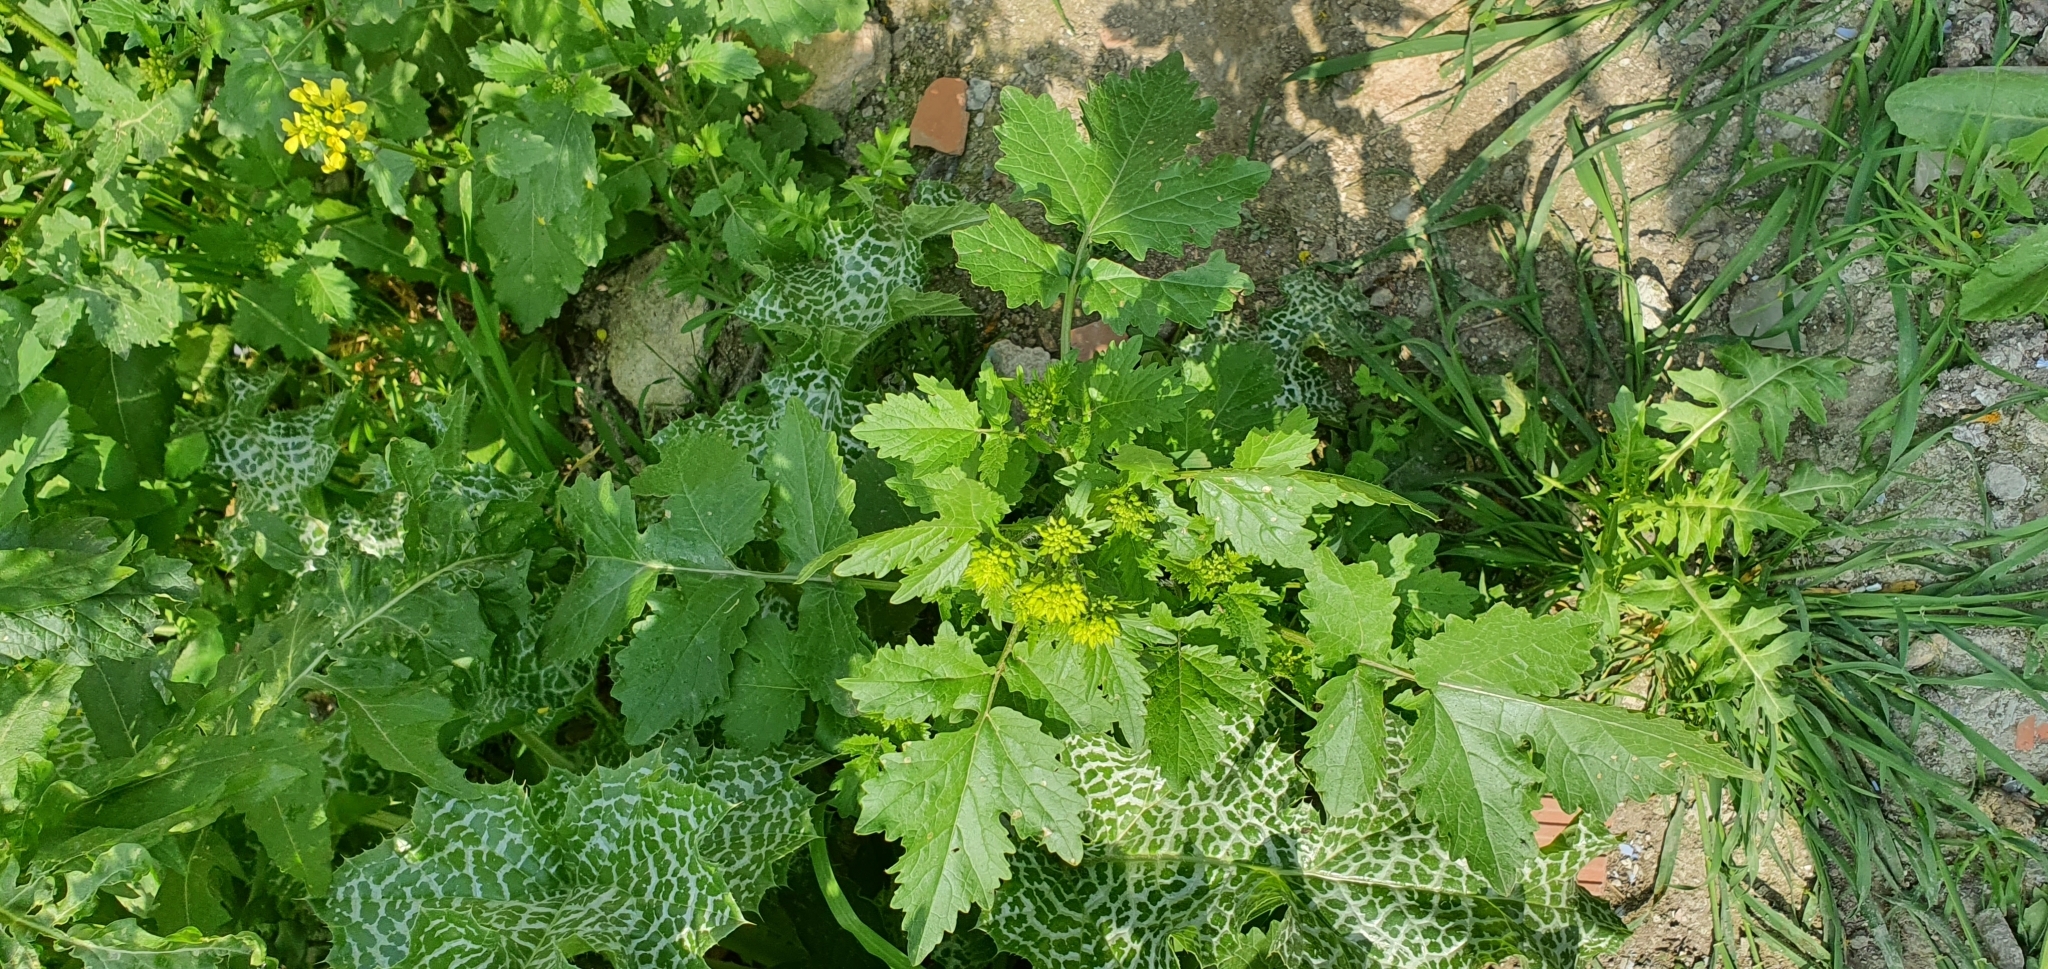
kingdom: Plantae
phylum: Tracheophyta
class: Magnoliopsida
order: Brassicales
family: Brassicaceae
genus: Sinapis
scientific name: Sinapis alba
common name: White mustard
